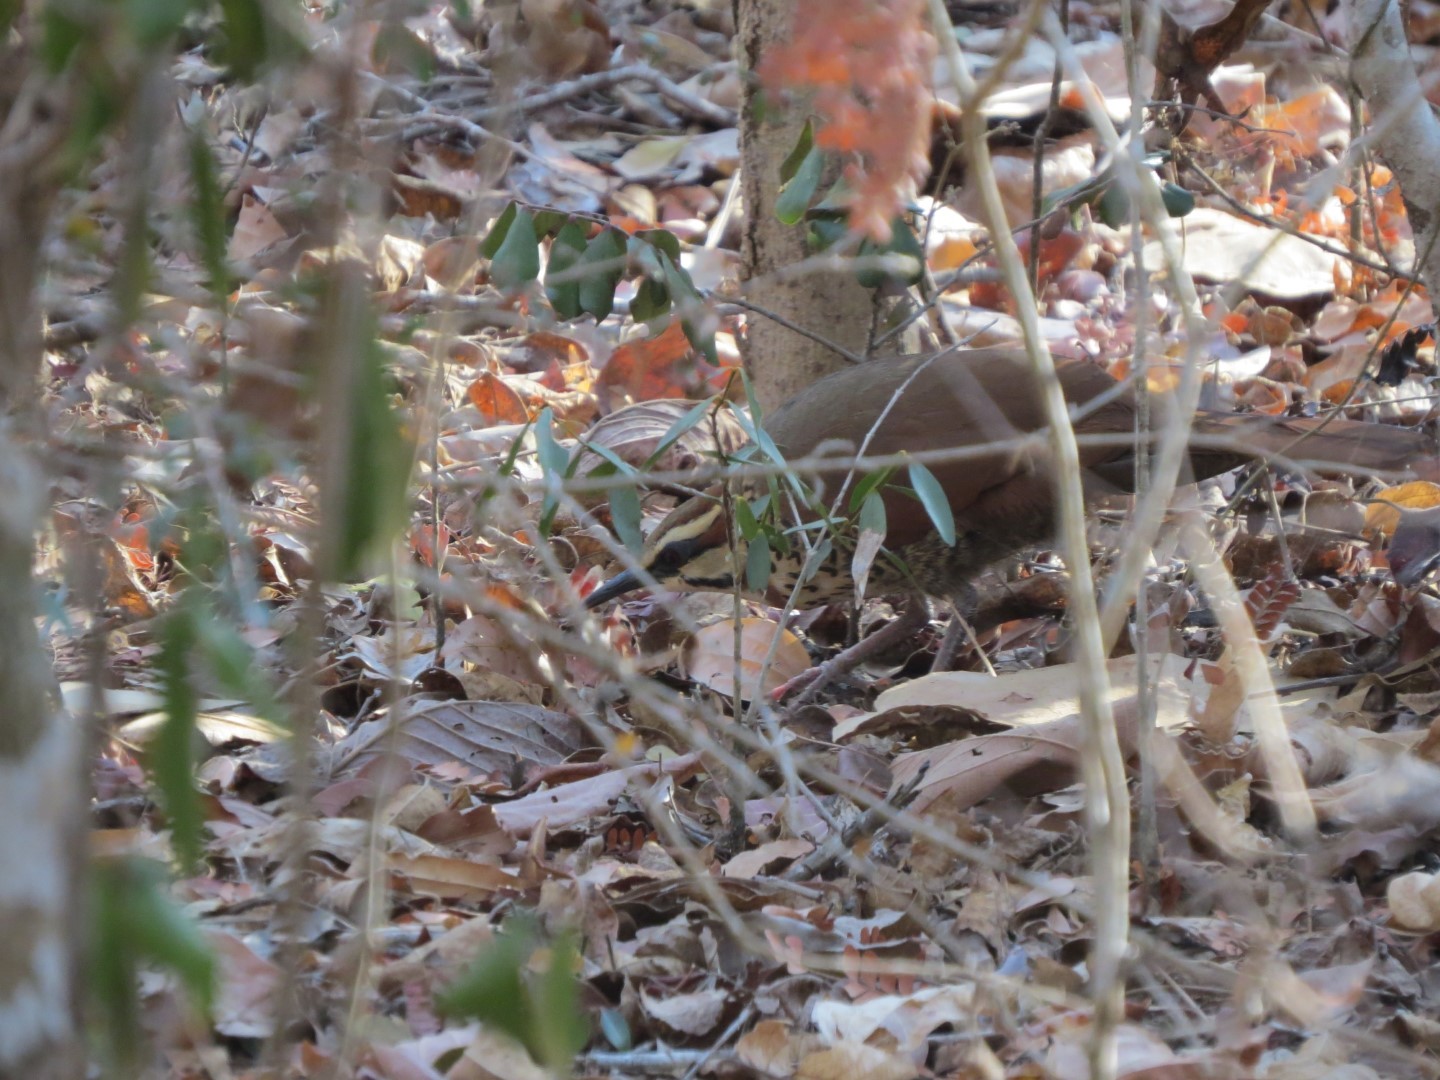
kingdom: Animalia
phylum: Chordata
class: Aves
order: Mesitornithiformes
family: Mesitornithidae
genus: Mesitornis
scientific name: Mesitornis variegatus
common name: White-breasted mesite
